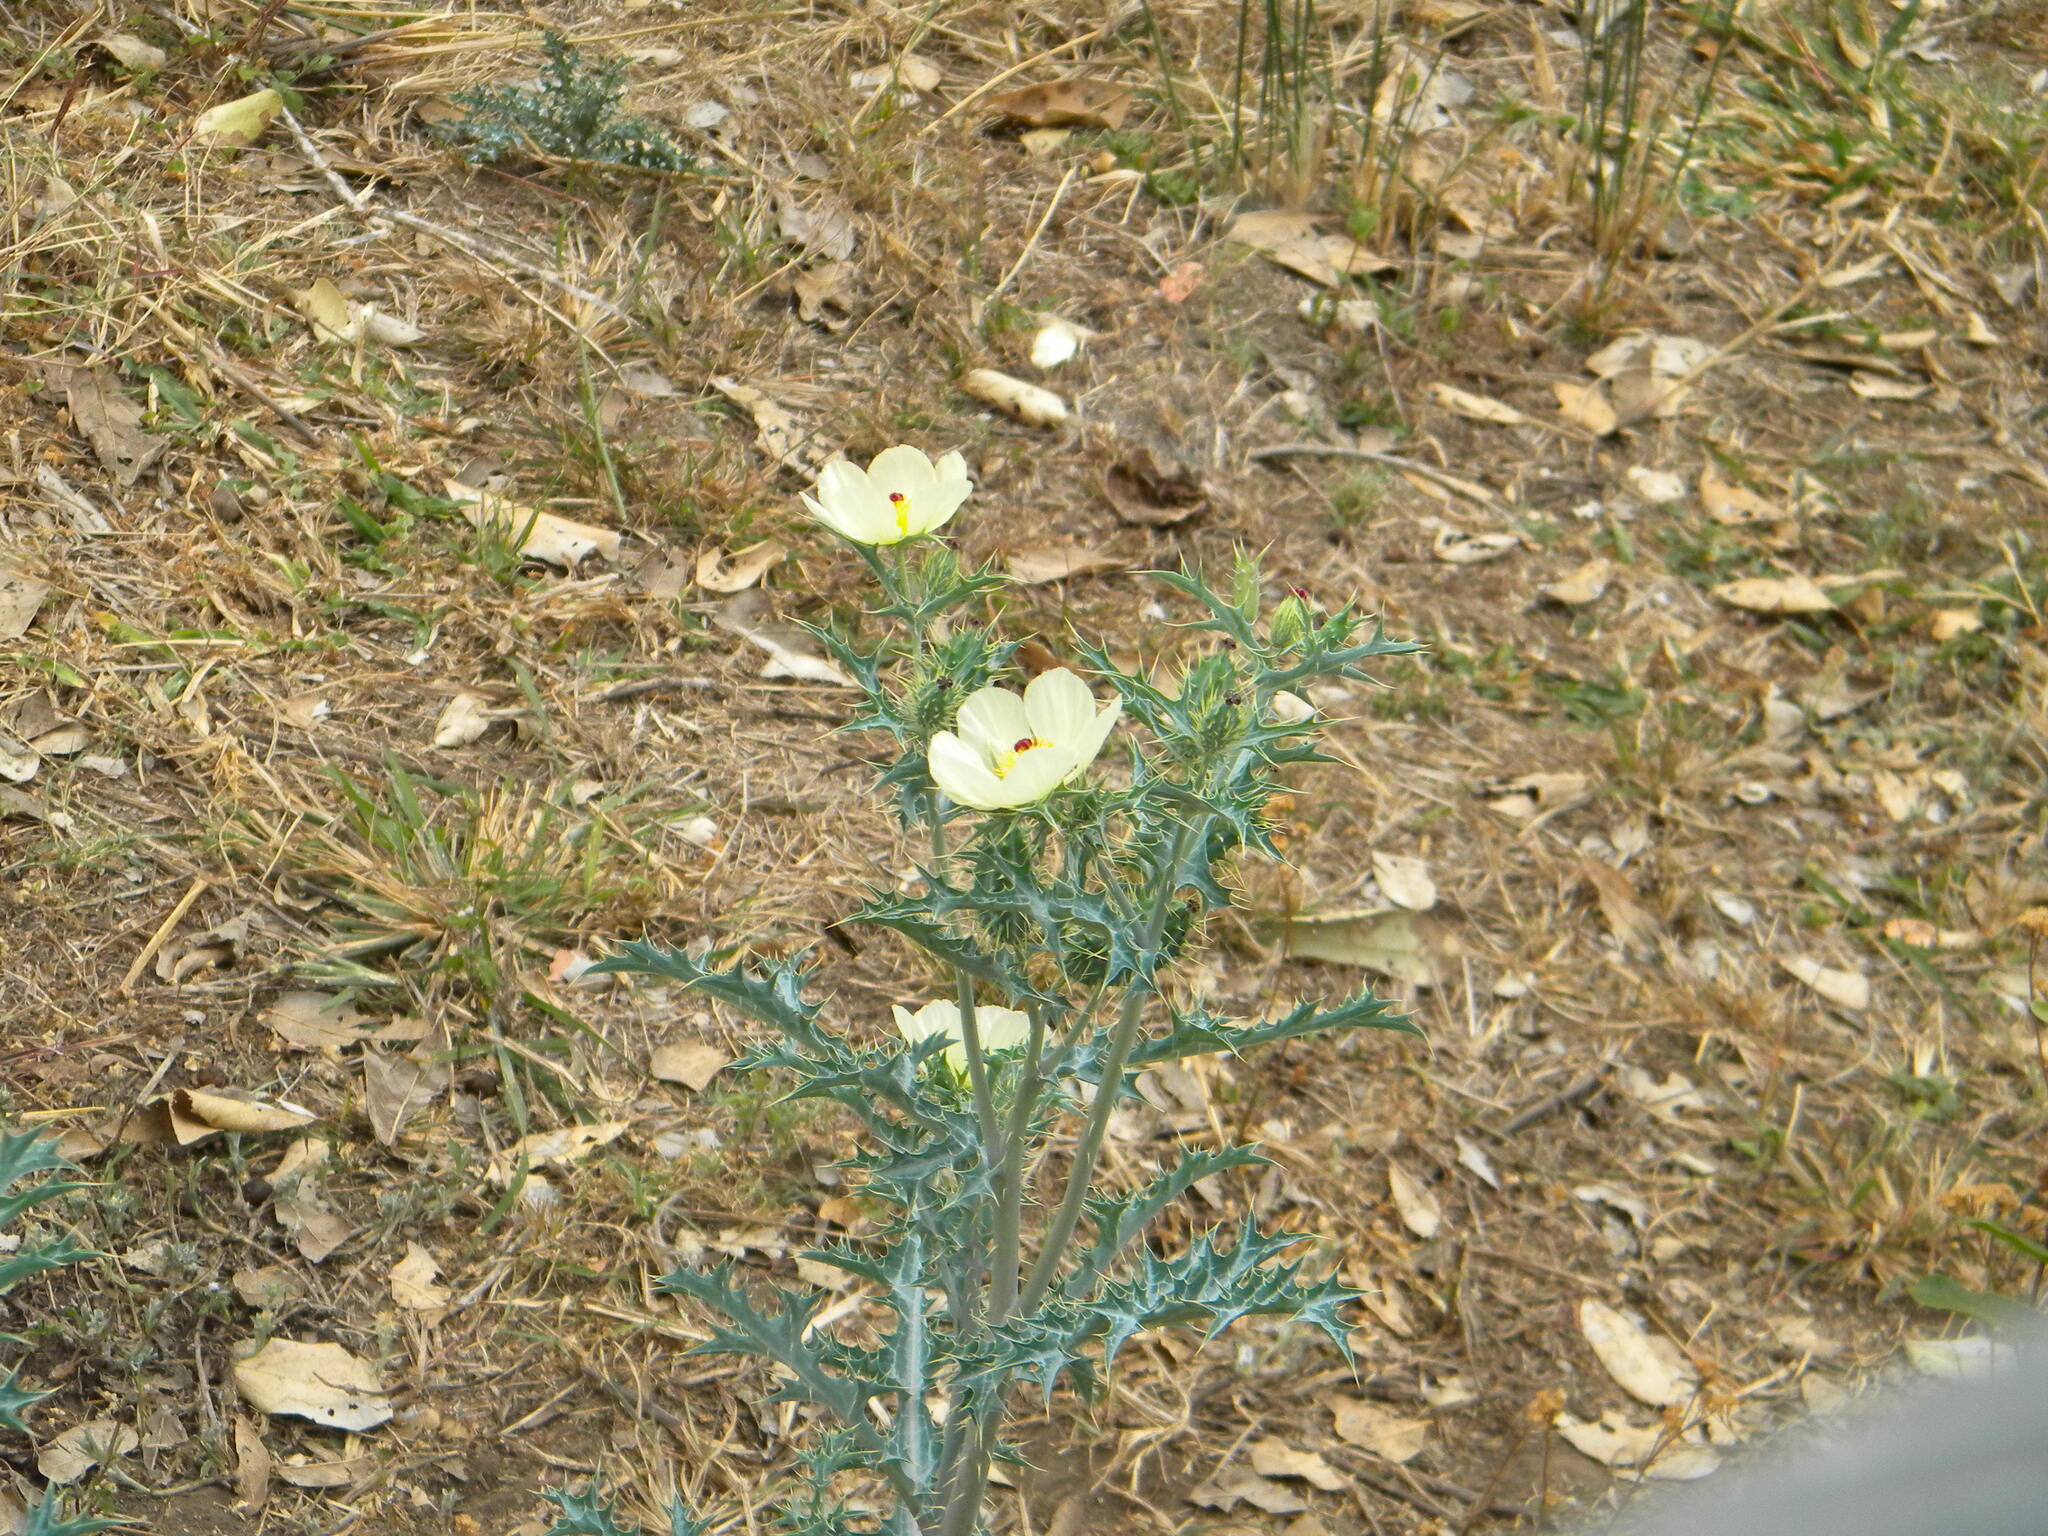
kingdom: Plantae
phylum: Tracheophyta
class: Magnoliopsida
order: Ranunculales
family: Papaveraceae
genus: Argemone
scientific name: Argemone ochroleuca
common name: White-flower mexican-poppy
